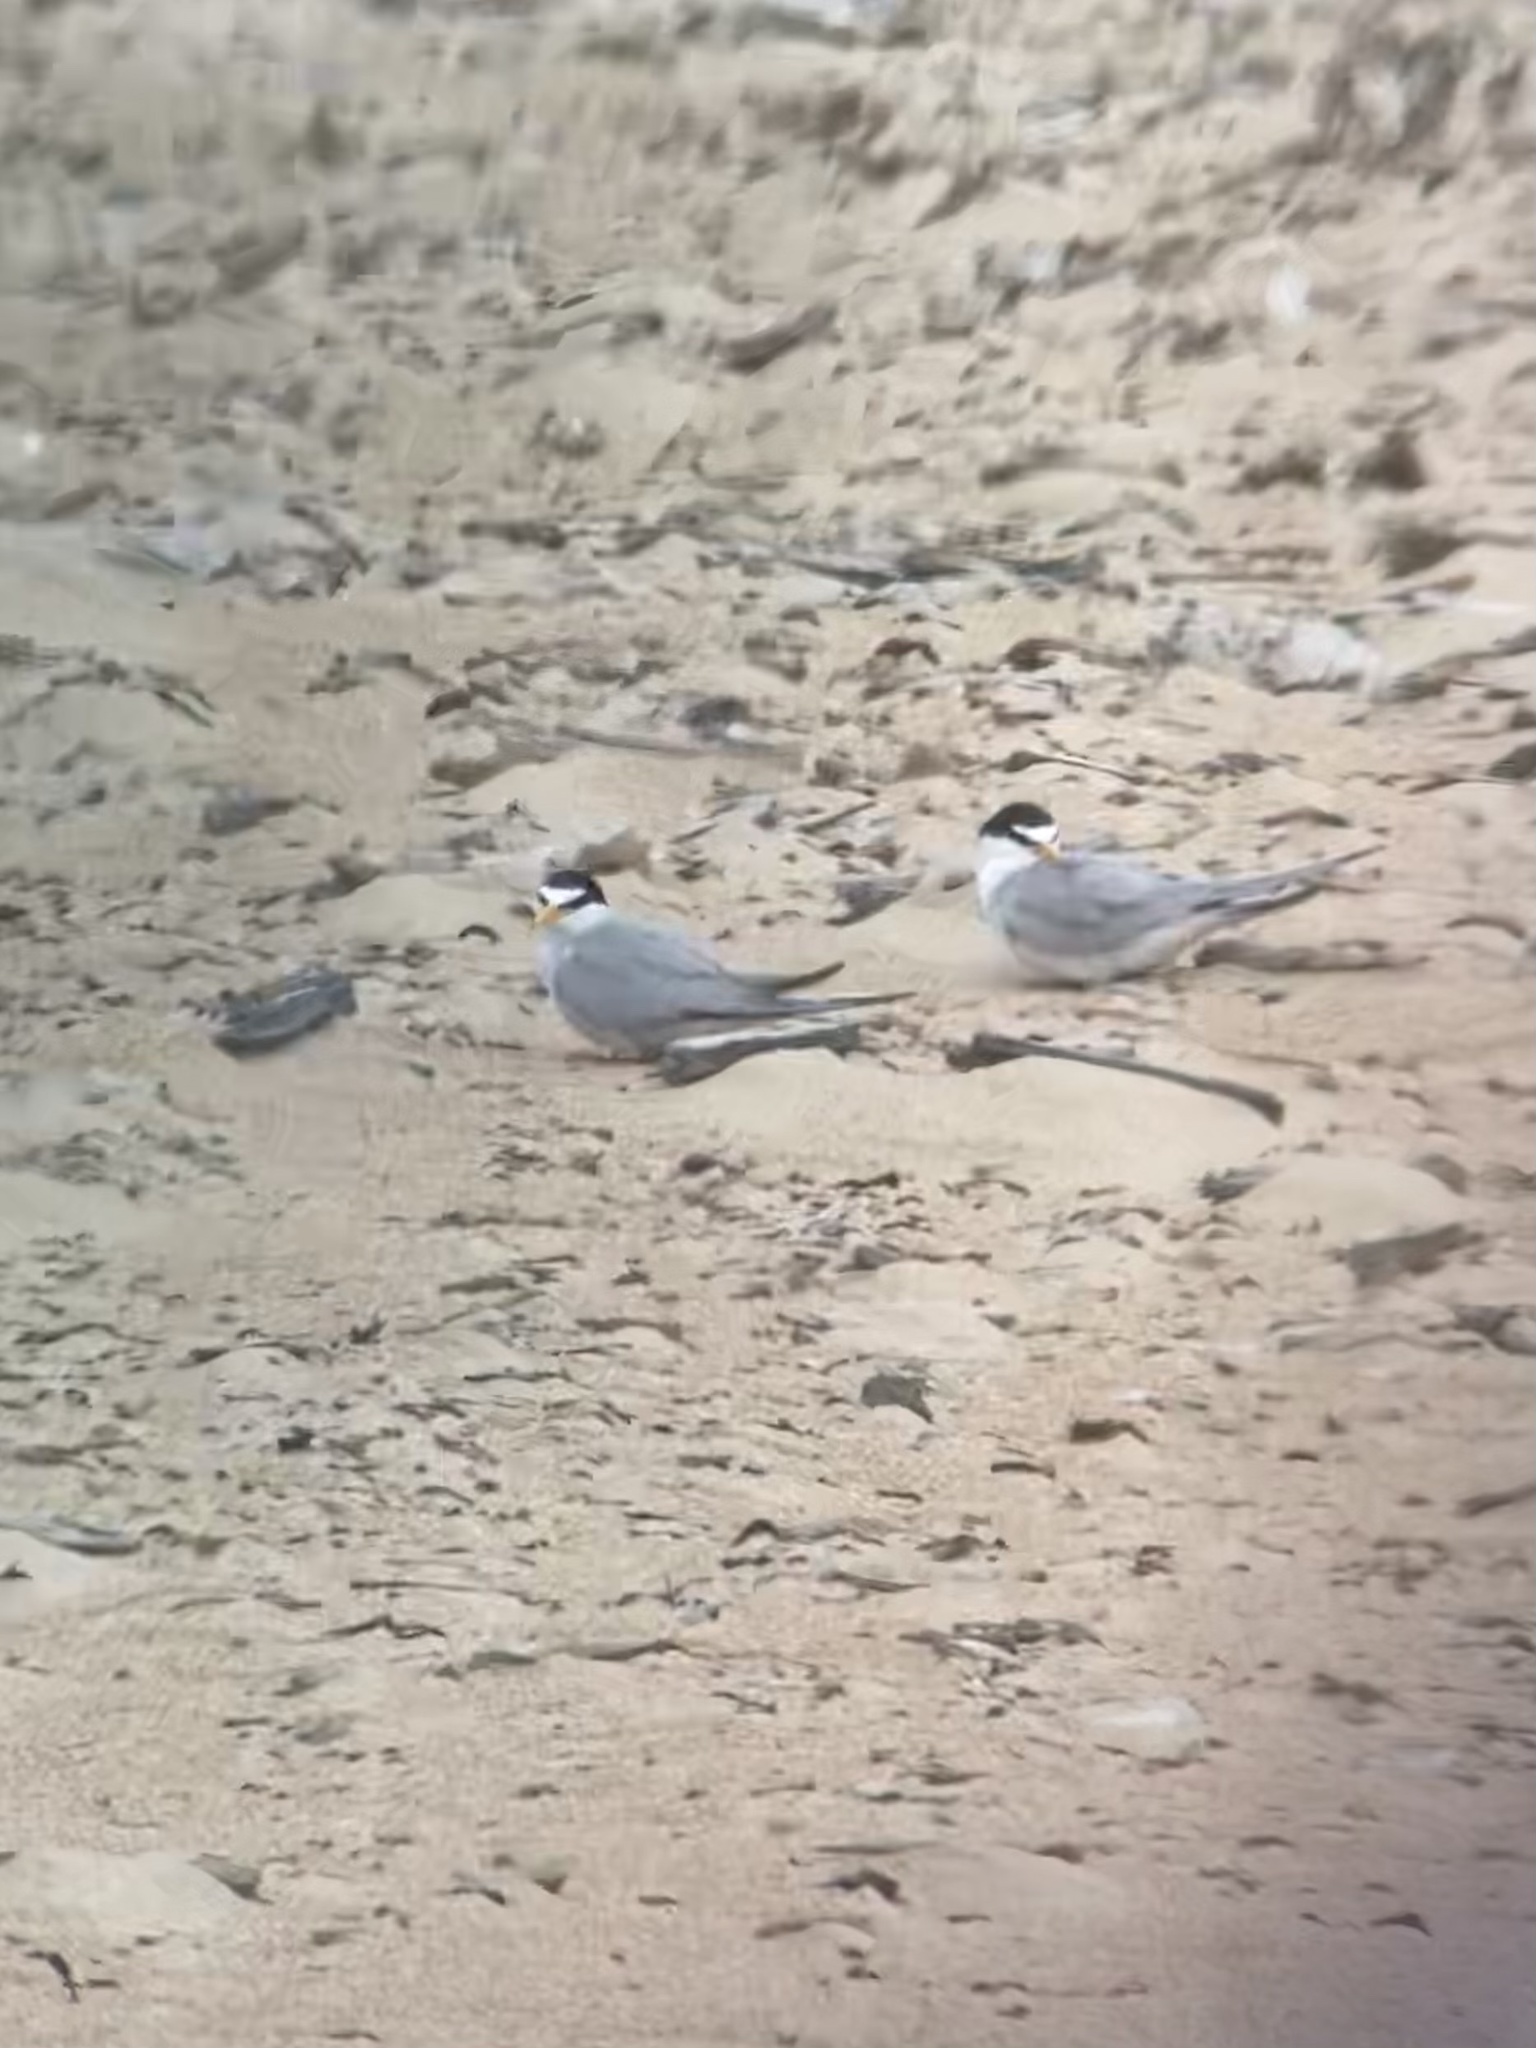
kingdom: Animalia
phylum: Chordata
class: Aves
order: Charadriiformes
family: Laridae
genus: Sternula
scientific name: Sternula antillarum
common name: Least tern
